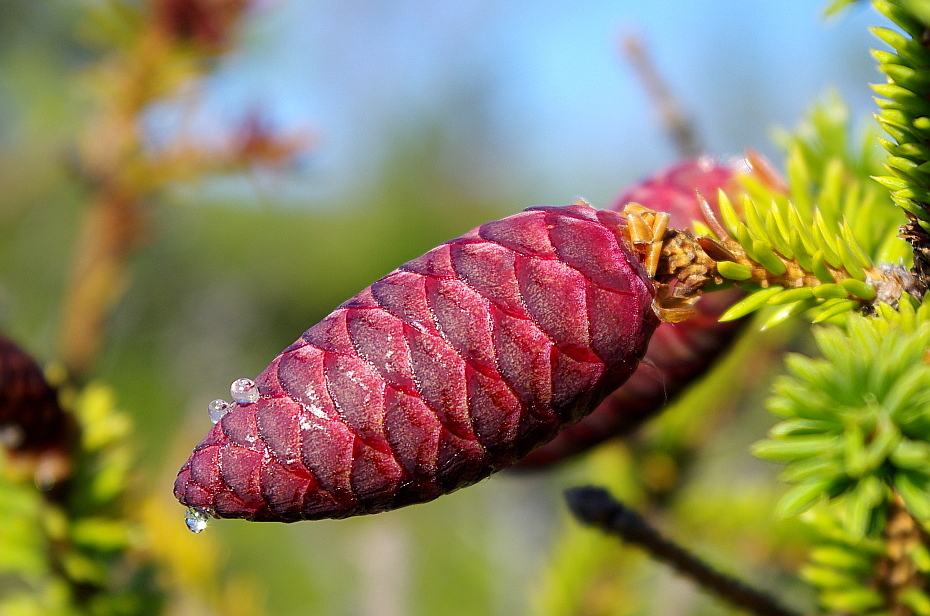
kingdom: Plantae
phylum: Tracheophyta
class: Pinopsida
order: Pinales
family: Pinaceae
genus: Picea
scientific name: Picea fennica
